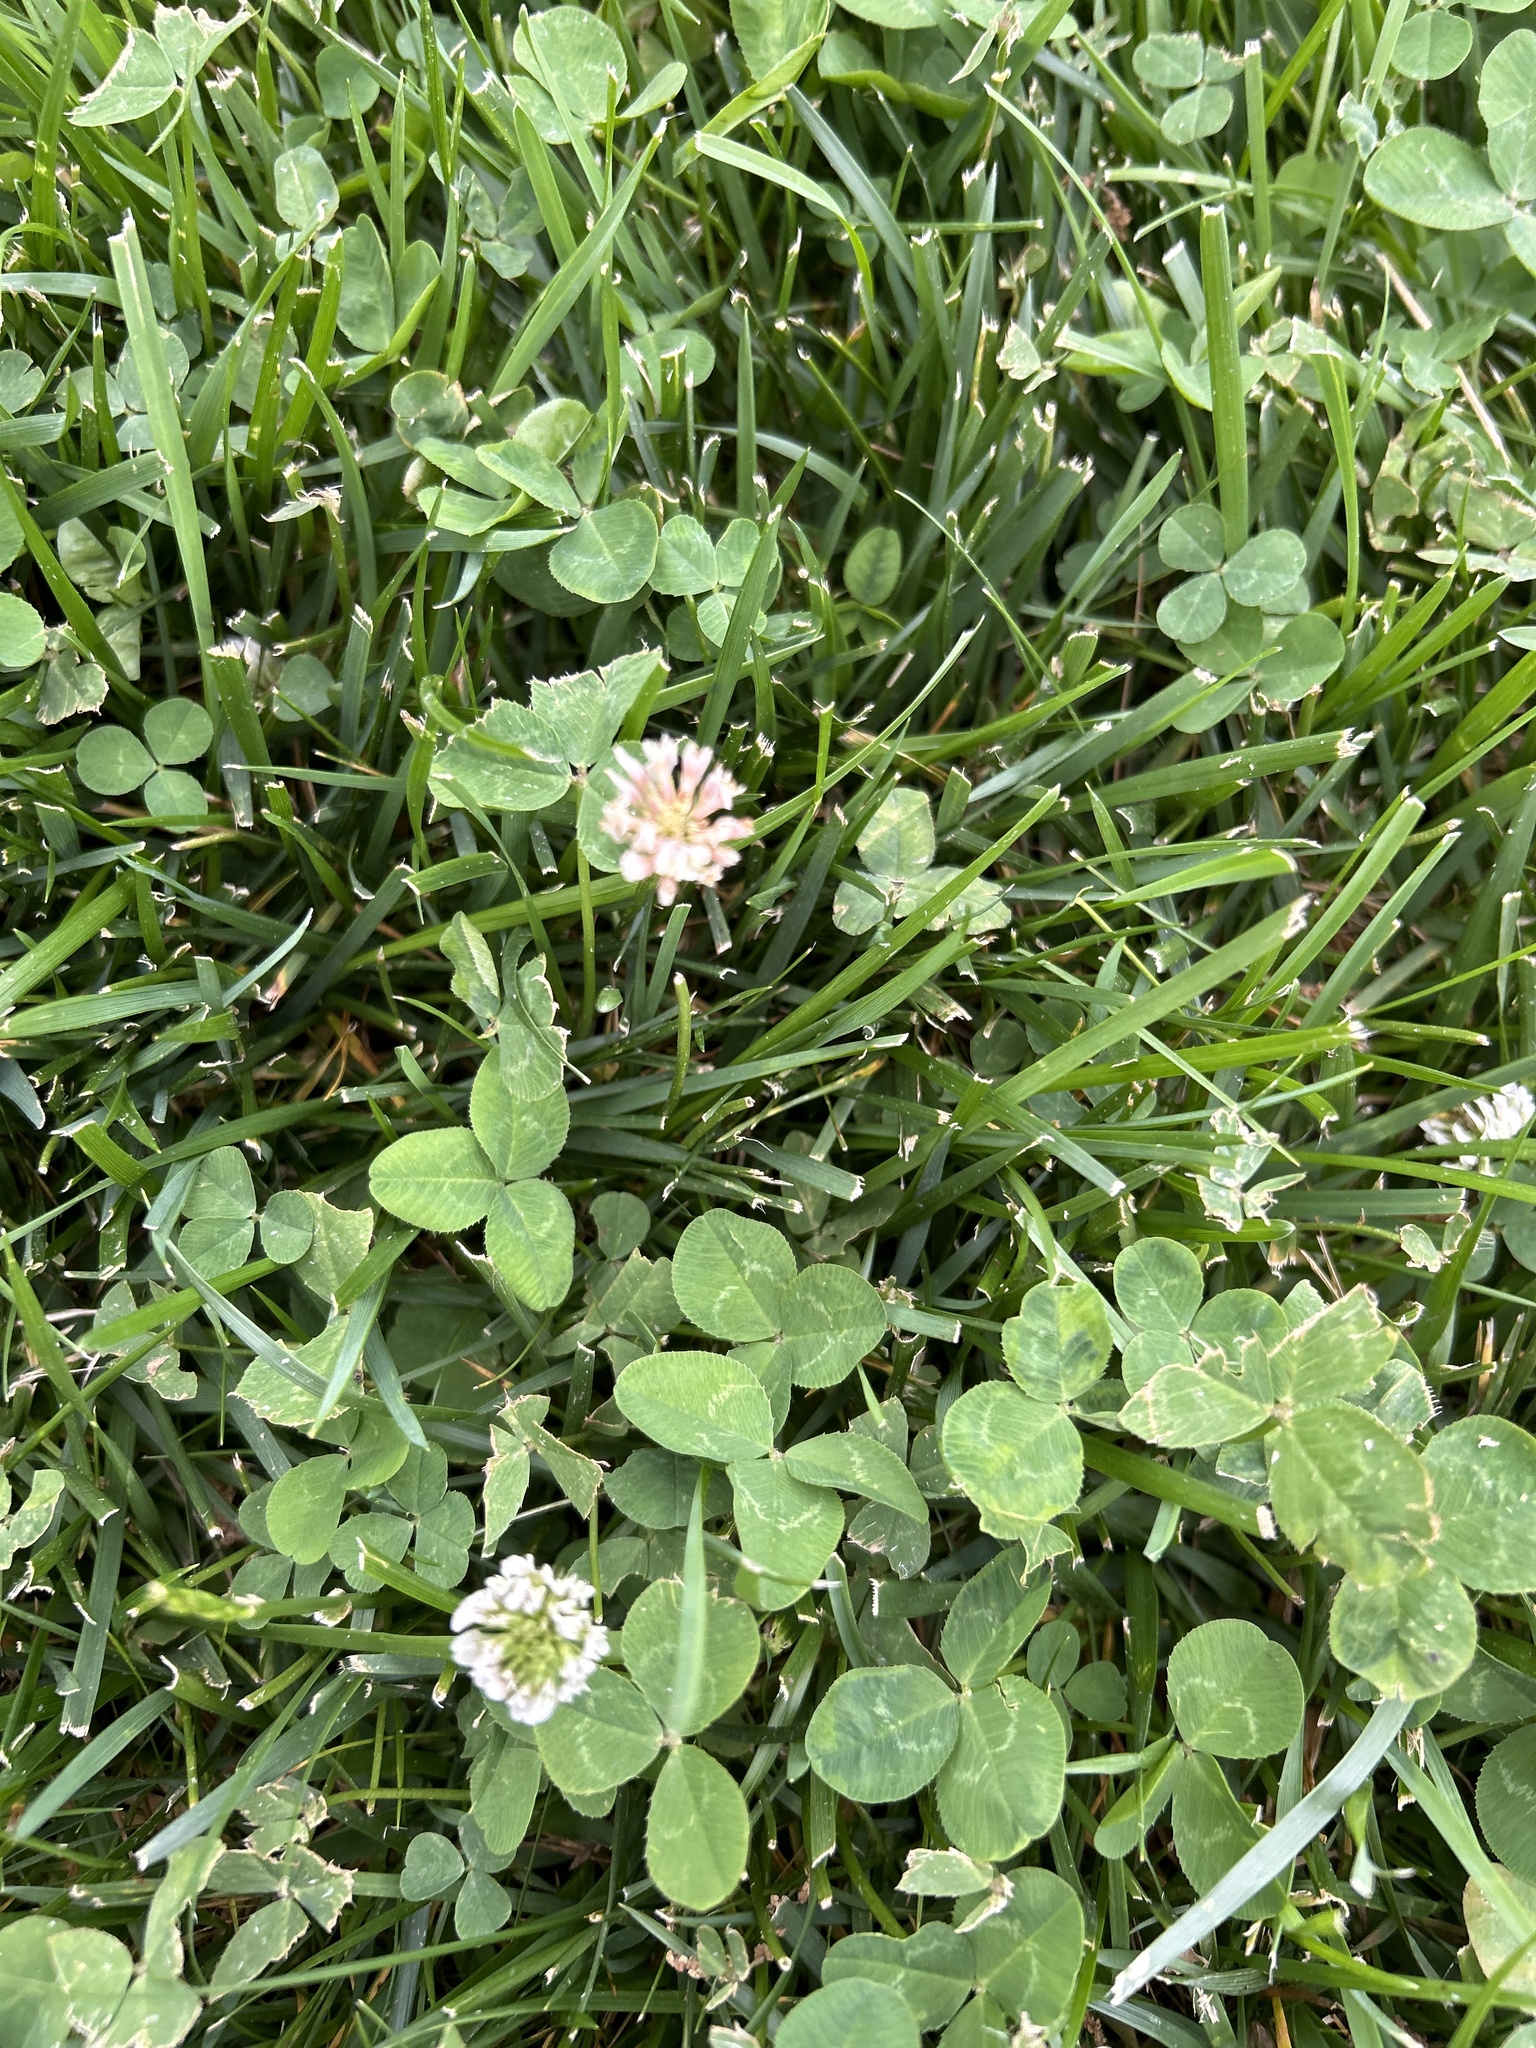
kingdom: Plantae
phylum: Tracheophyta
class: Magnoliopsida
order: Fabales
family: Fabaceae
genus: Trifolium
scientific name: Trifolium repens
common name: White clover
